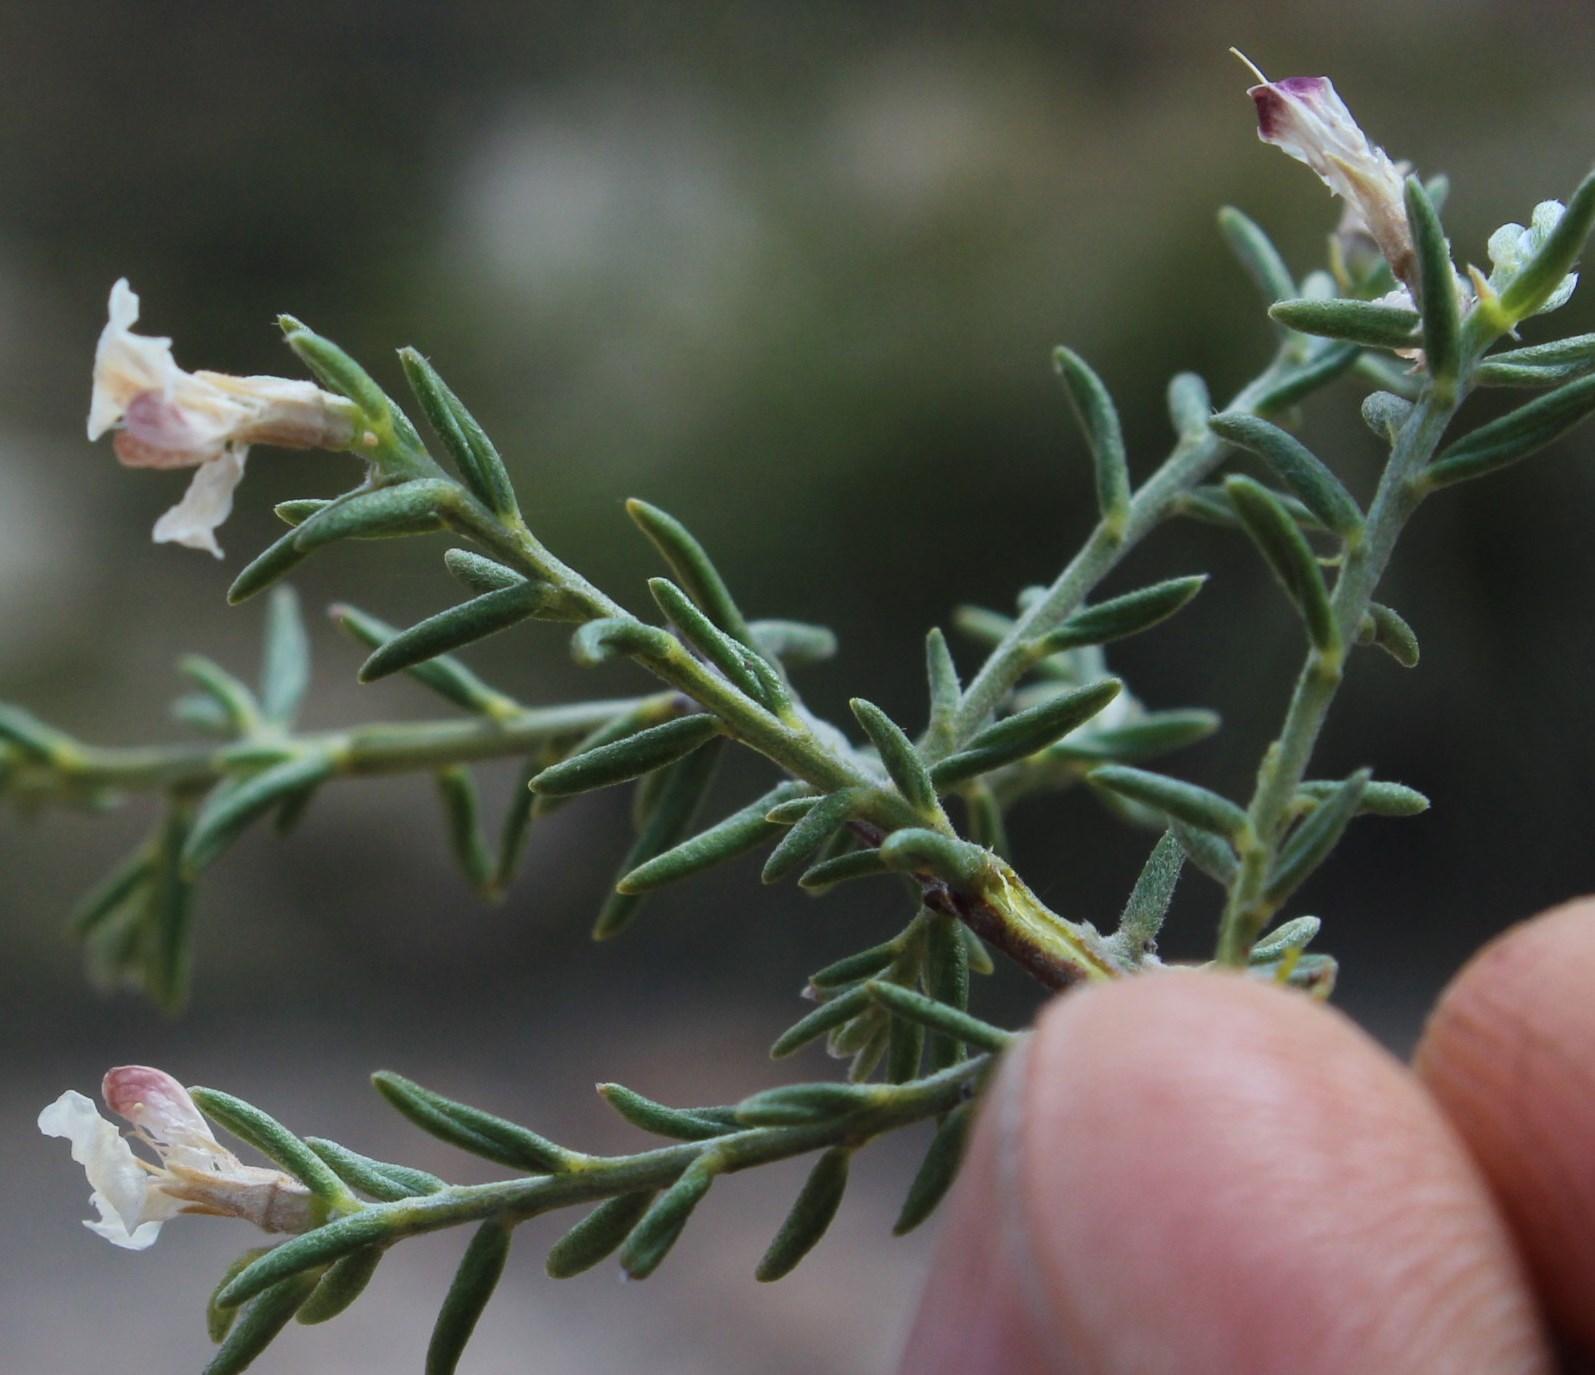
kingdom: Plantae
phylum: Tracheophyta
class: Magnoliopsida
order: Fabales
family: Fabaceae
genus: Amphithalea
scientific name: Amphithalea muirii
